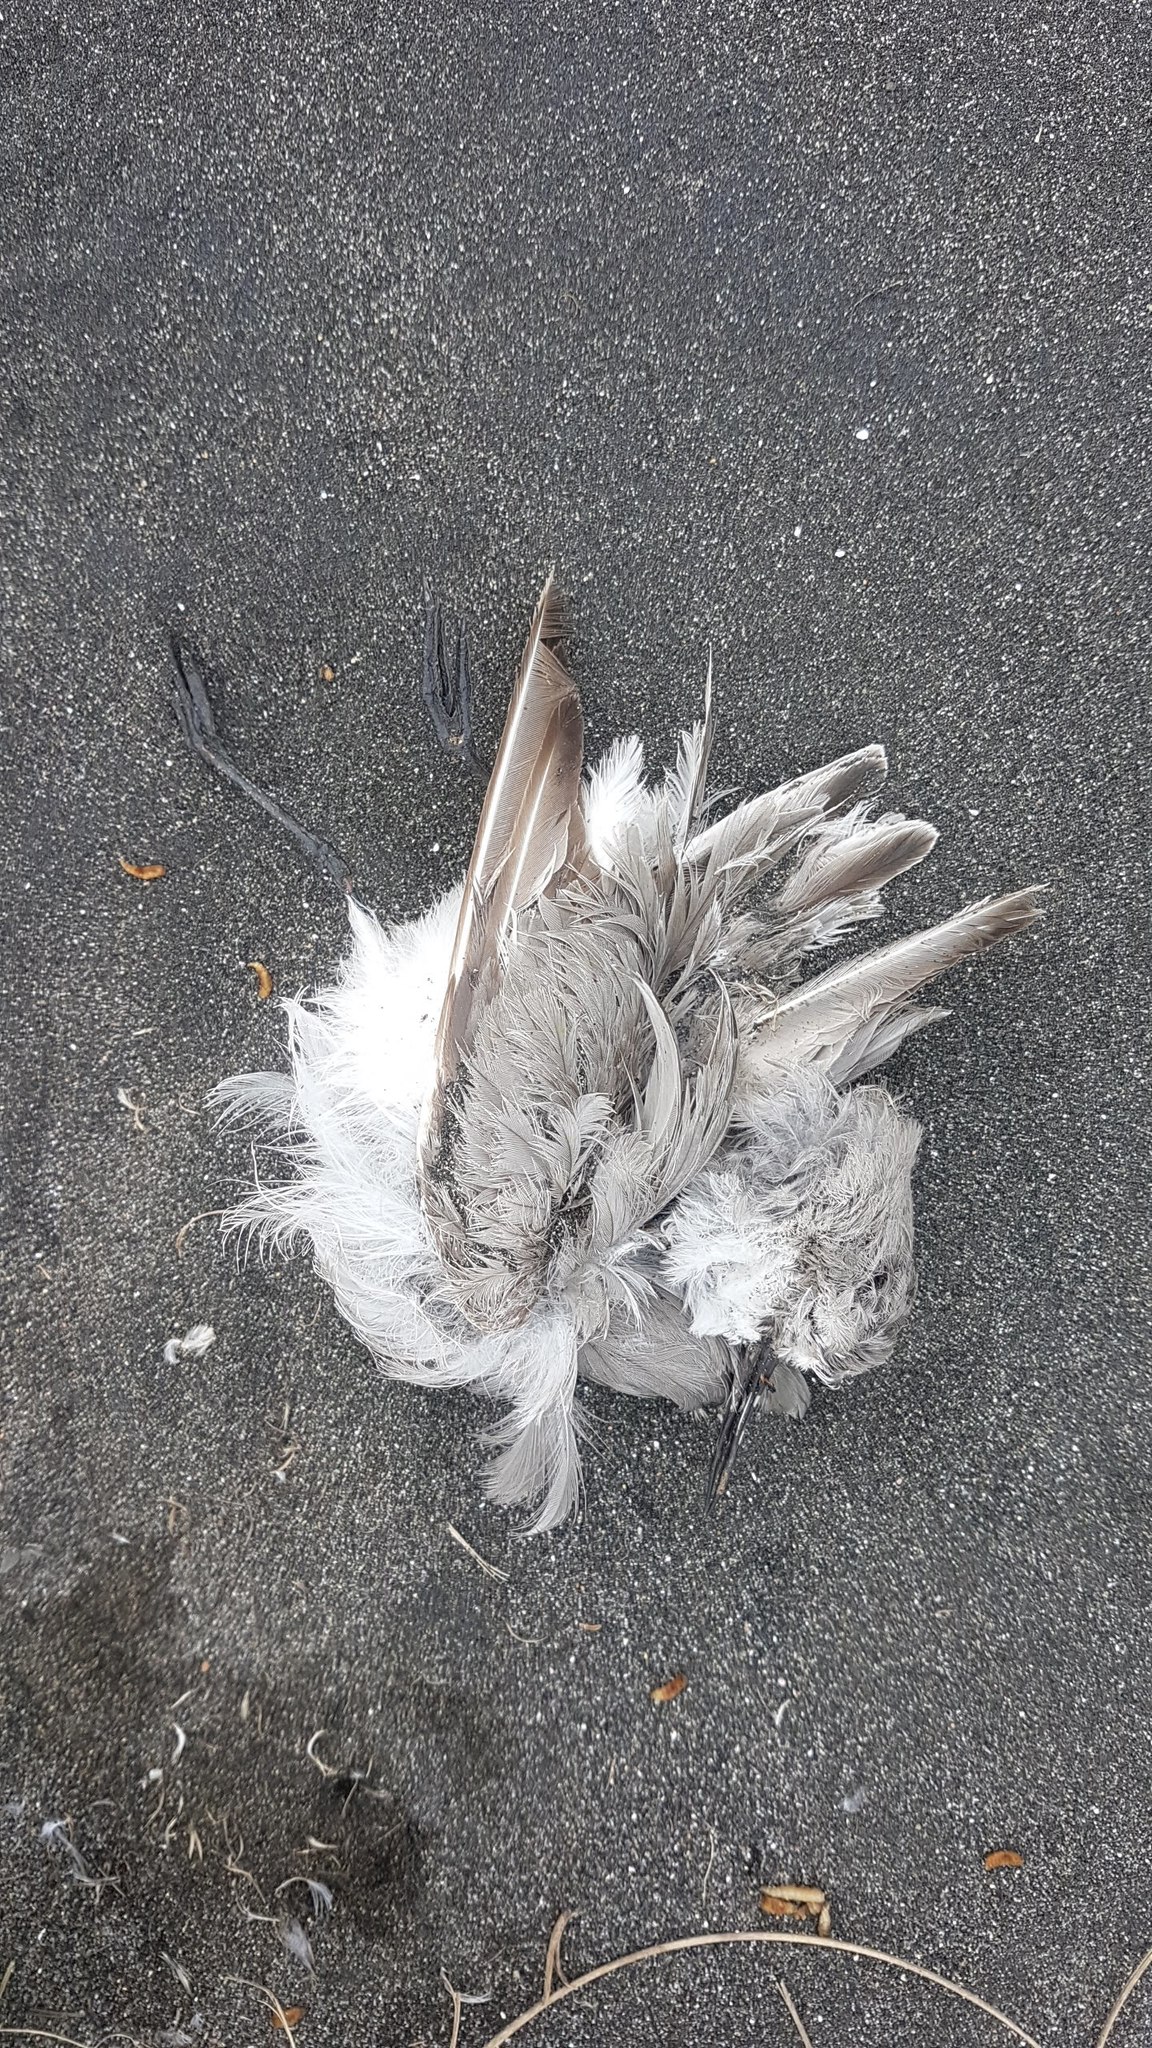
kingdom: Animalia
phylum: Chordata
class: Aves
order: Charadriiformes
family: Charadriidae
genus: Anarhynchus
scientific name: Anarhynchus frontalis
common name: Wrybill
